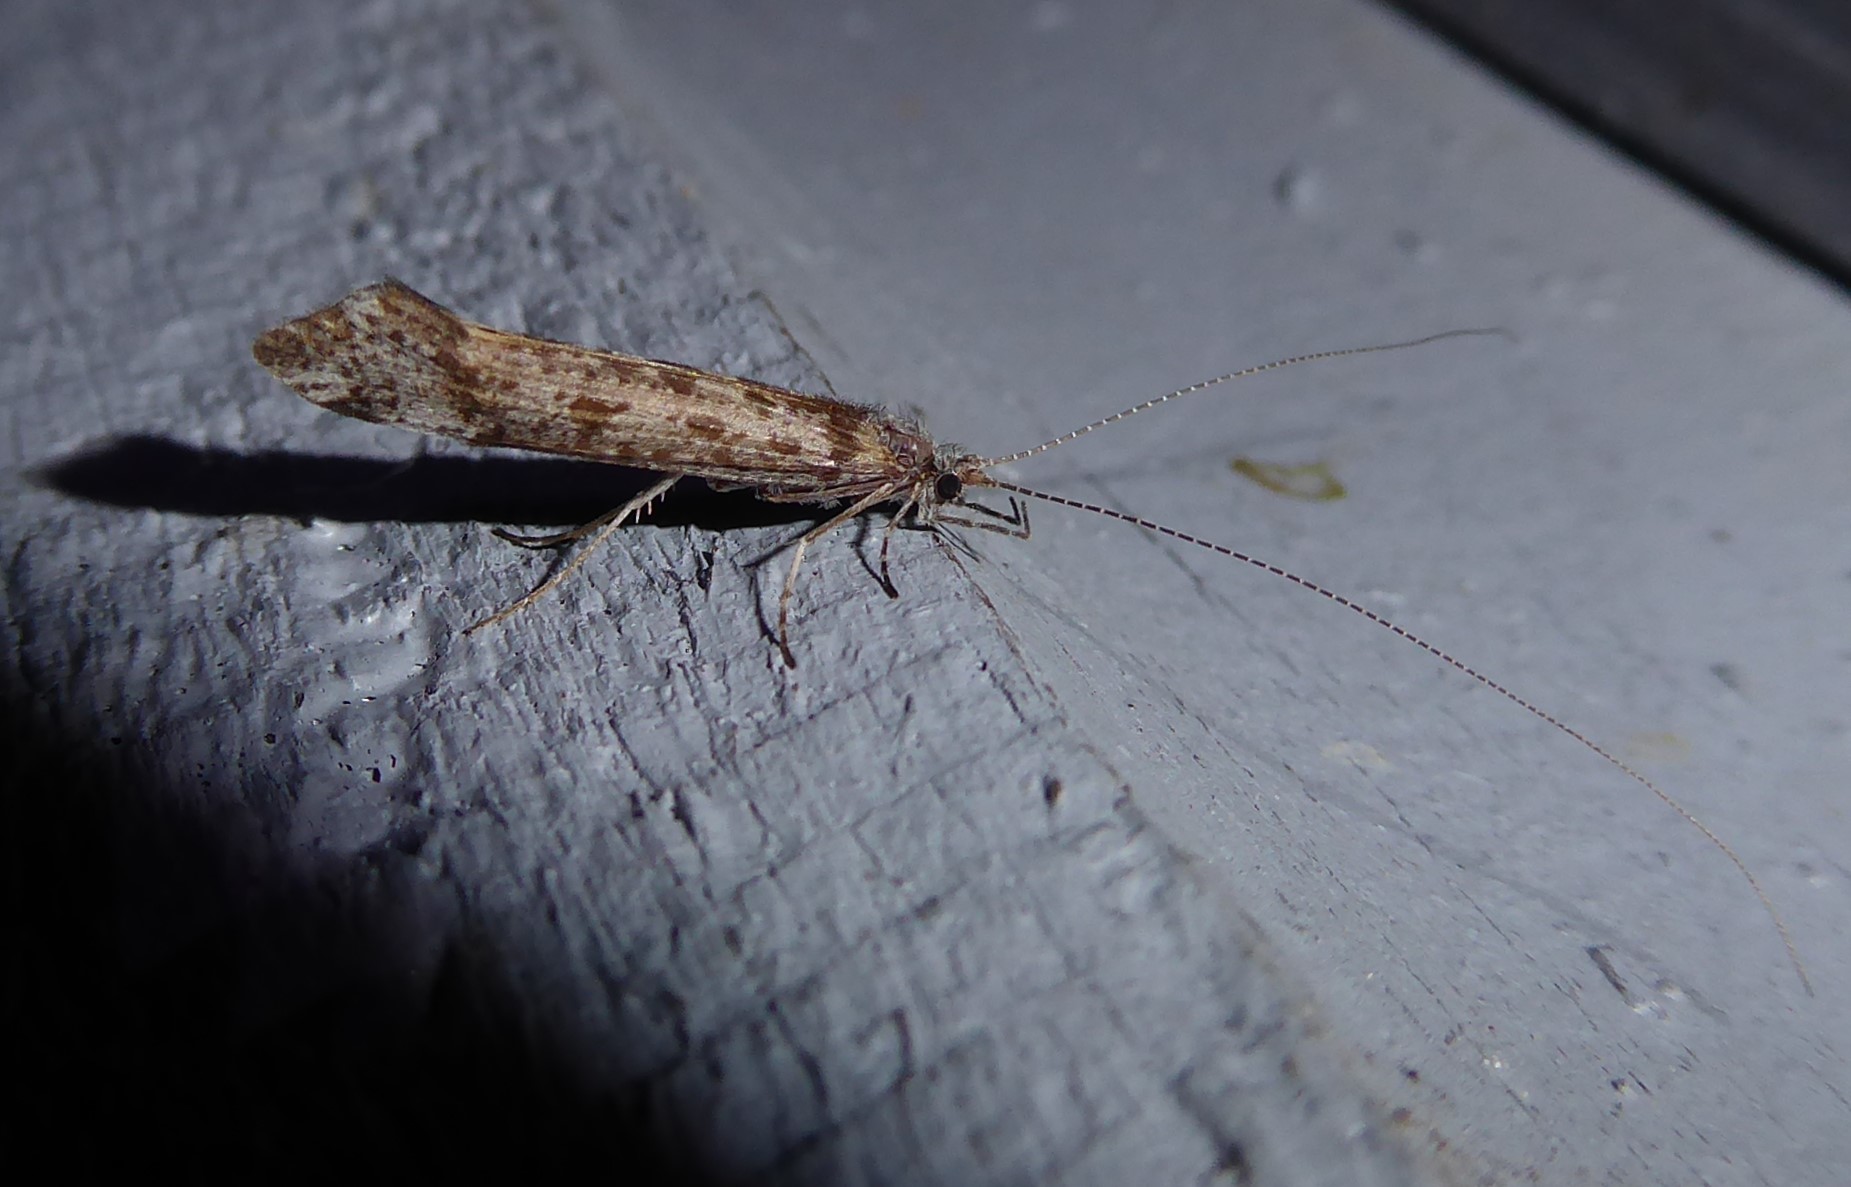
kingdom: Animalia
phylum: Arthropoda
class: Insecta
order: Trichoptera
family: Leptoceridae
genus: Hudsonema
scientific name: Hudsonema amabile
